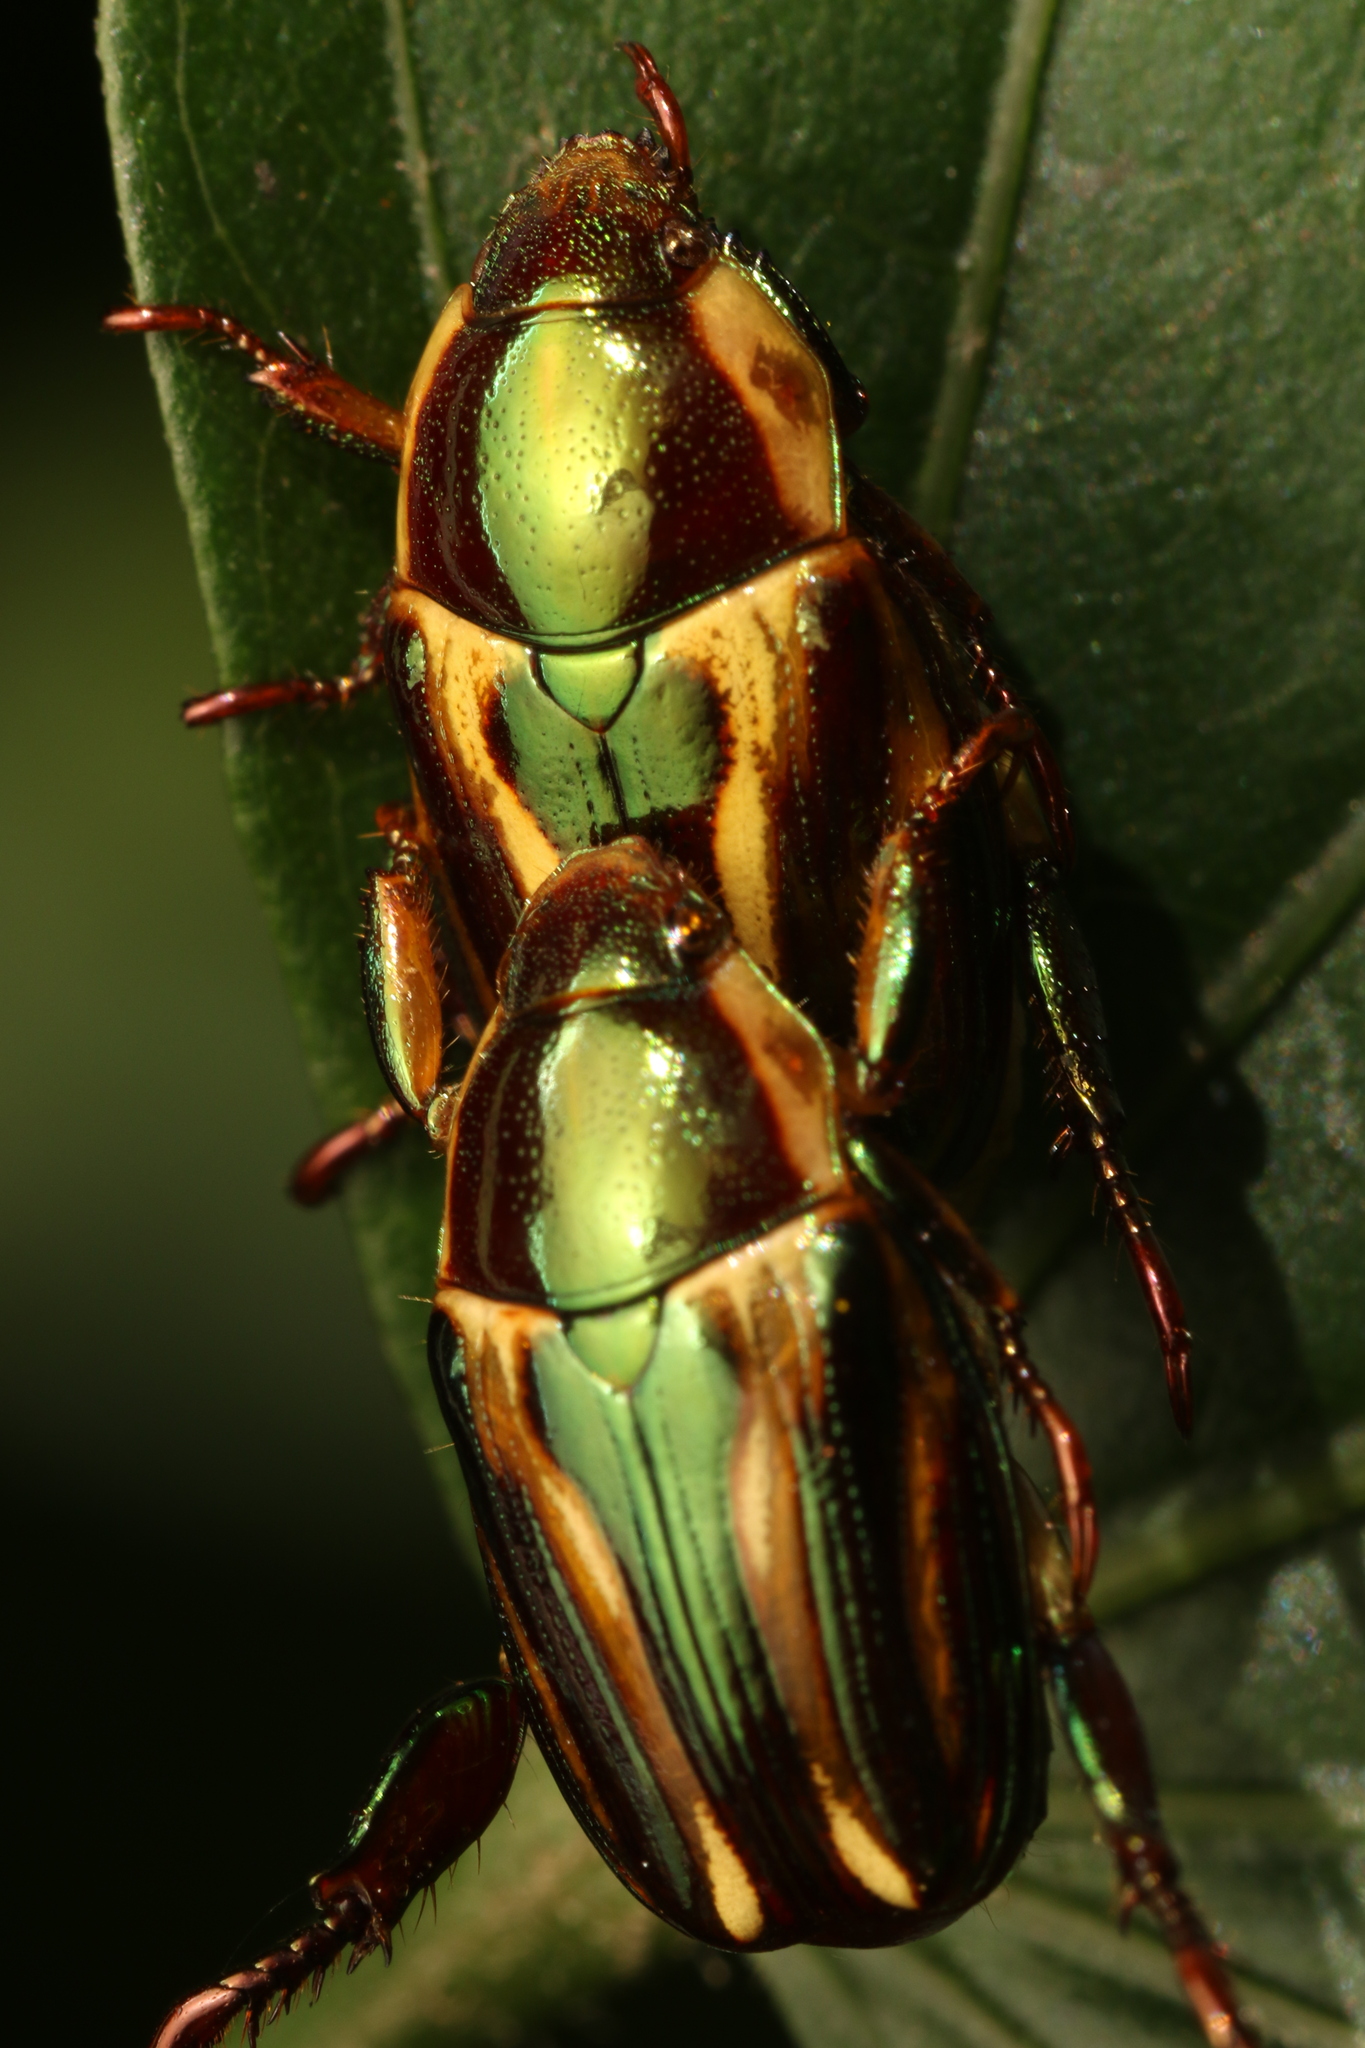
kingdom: Animalia
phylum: Arthropoda
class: Insecta
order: Coleoptera
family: Scarabaeidae
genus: Pelidnota
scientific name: Pelidnota liturella
